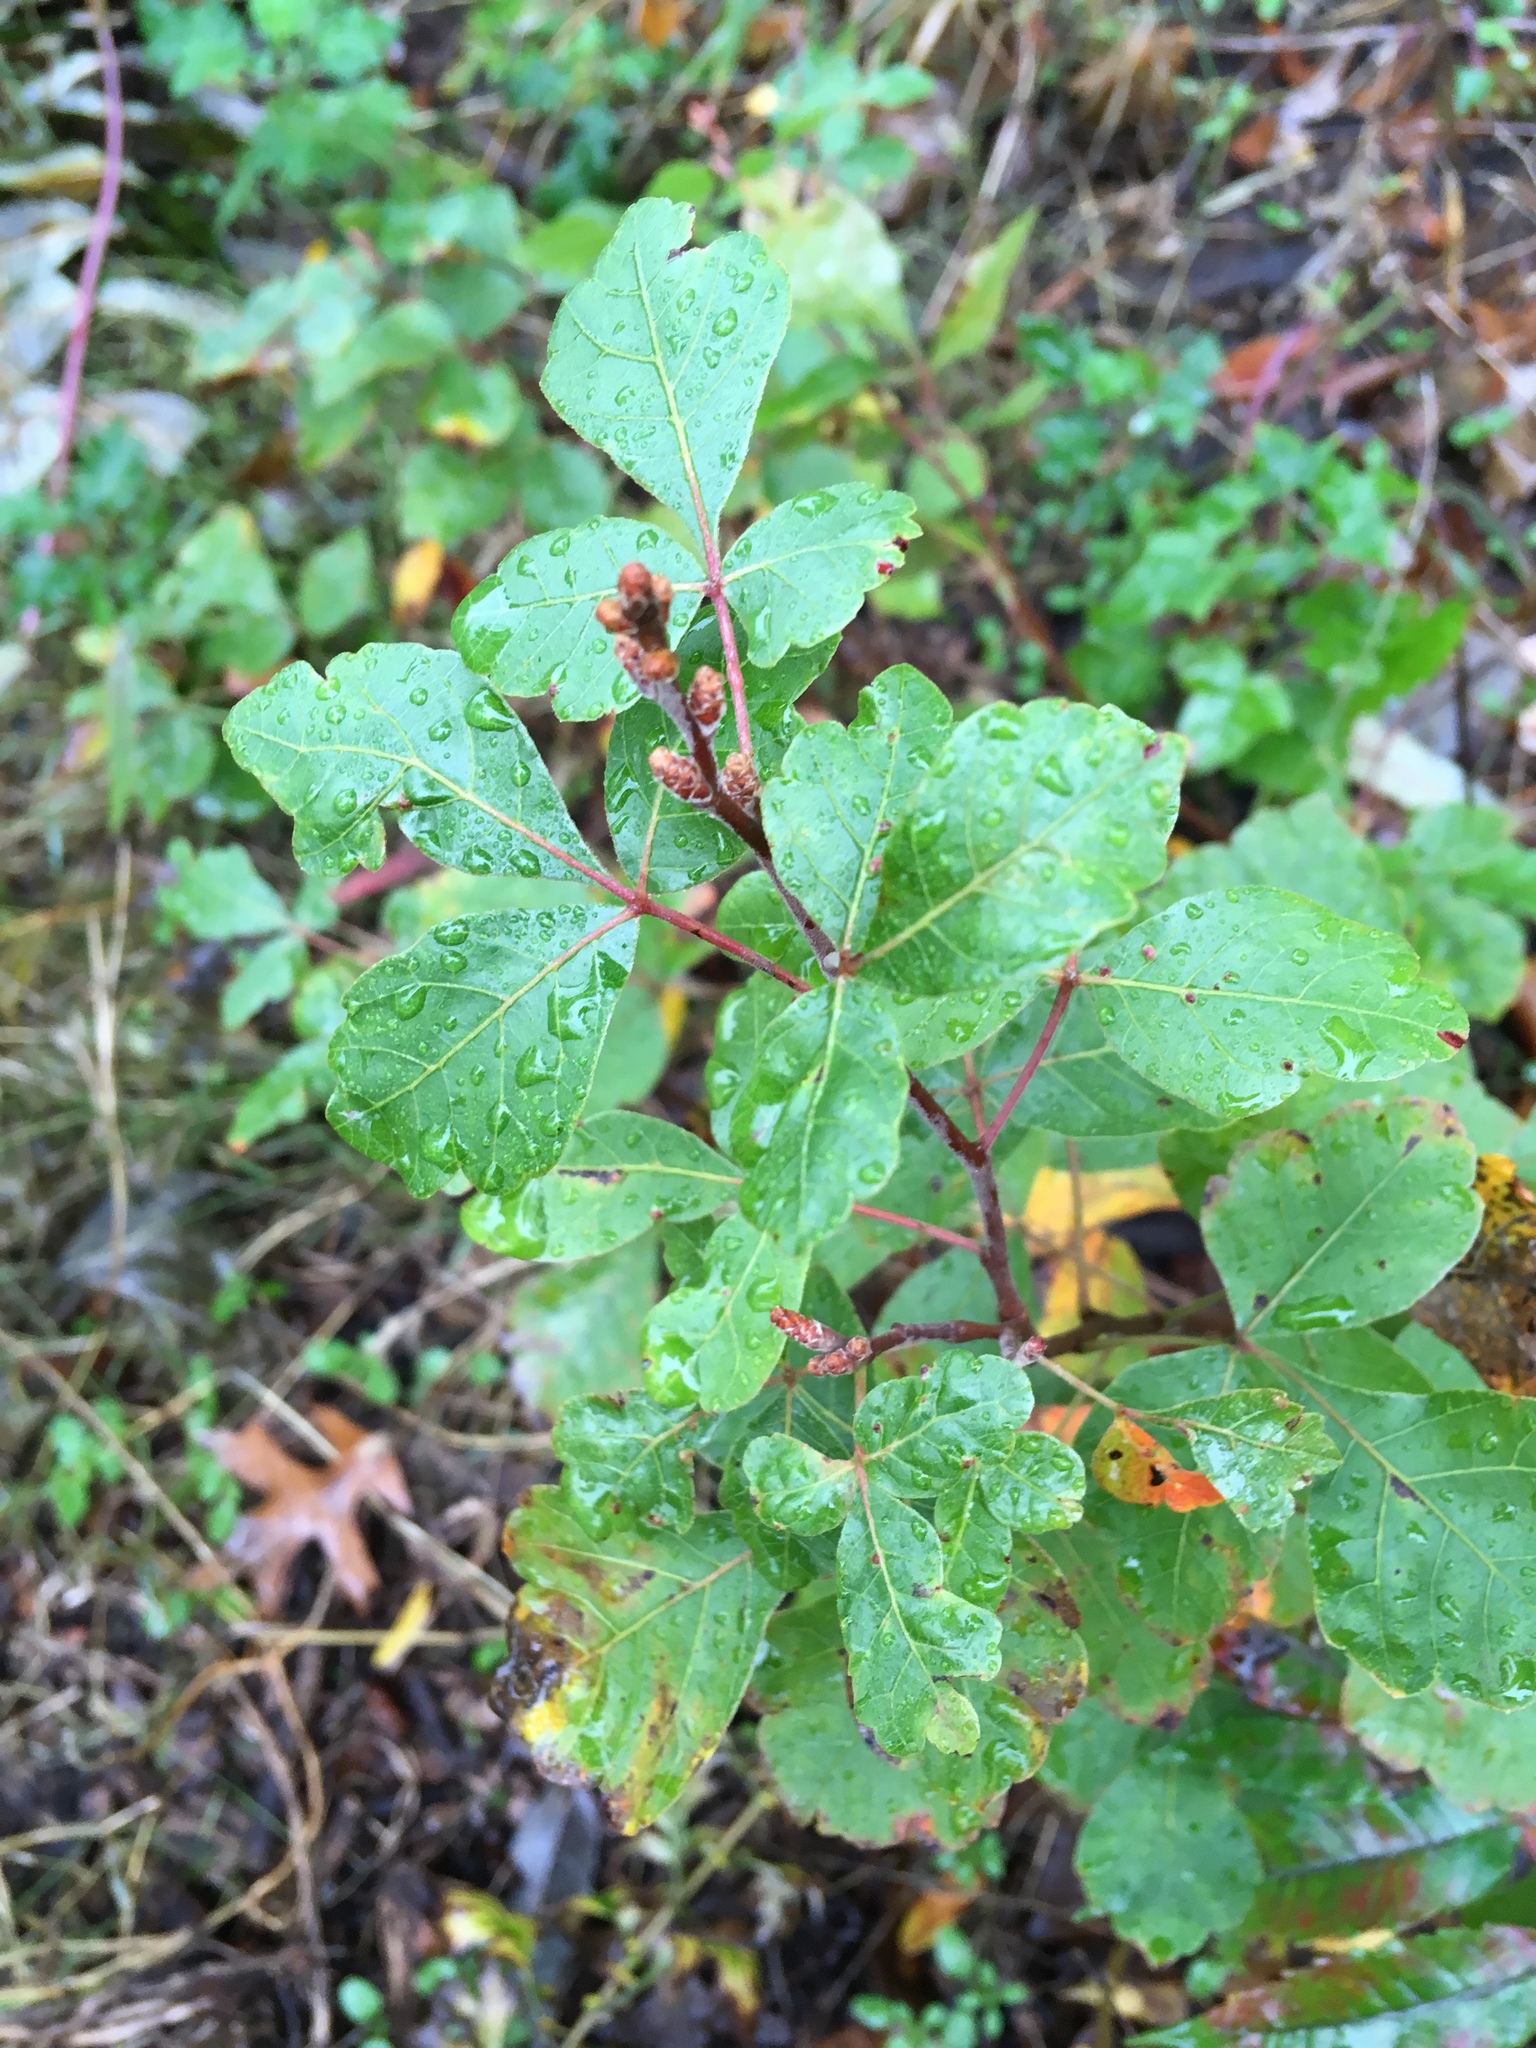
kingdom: Plantae
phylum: Tracheophyta
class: Magnoliopsida
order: Sapindales
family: Anacardiaceae
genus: Rhus
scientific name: Rhus aromatica
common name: Aromatic sumac
